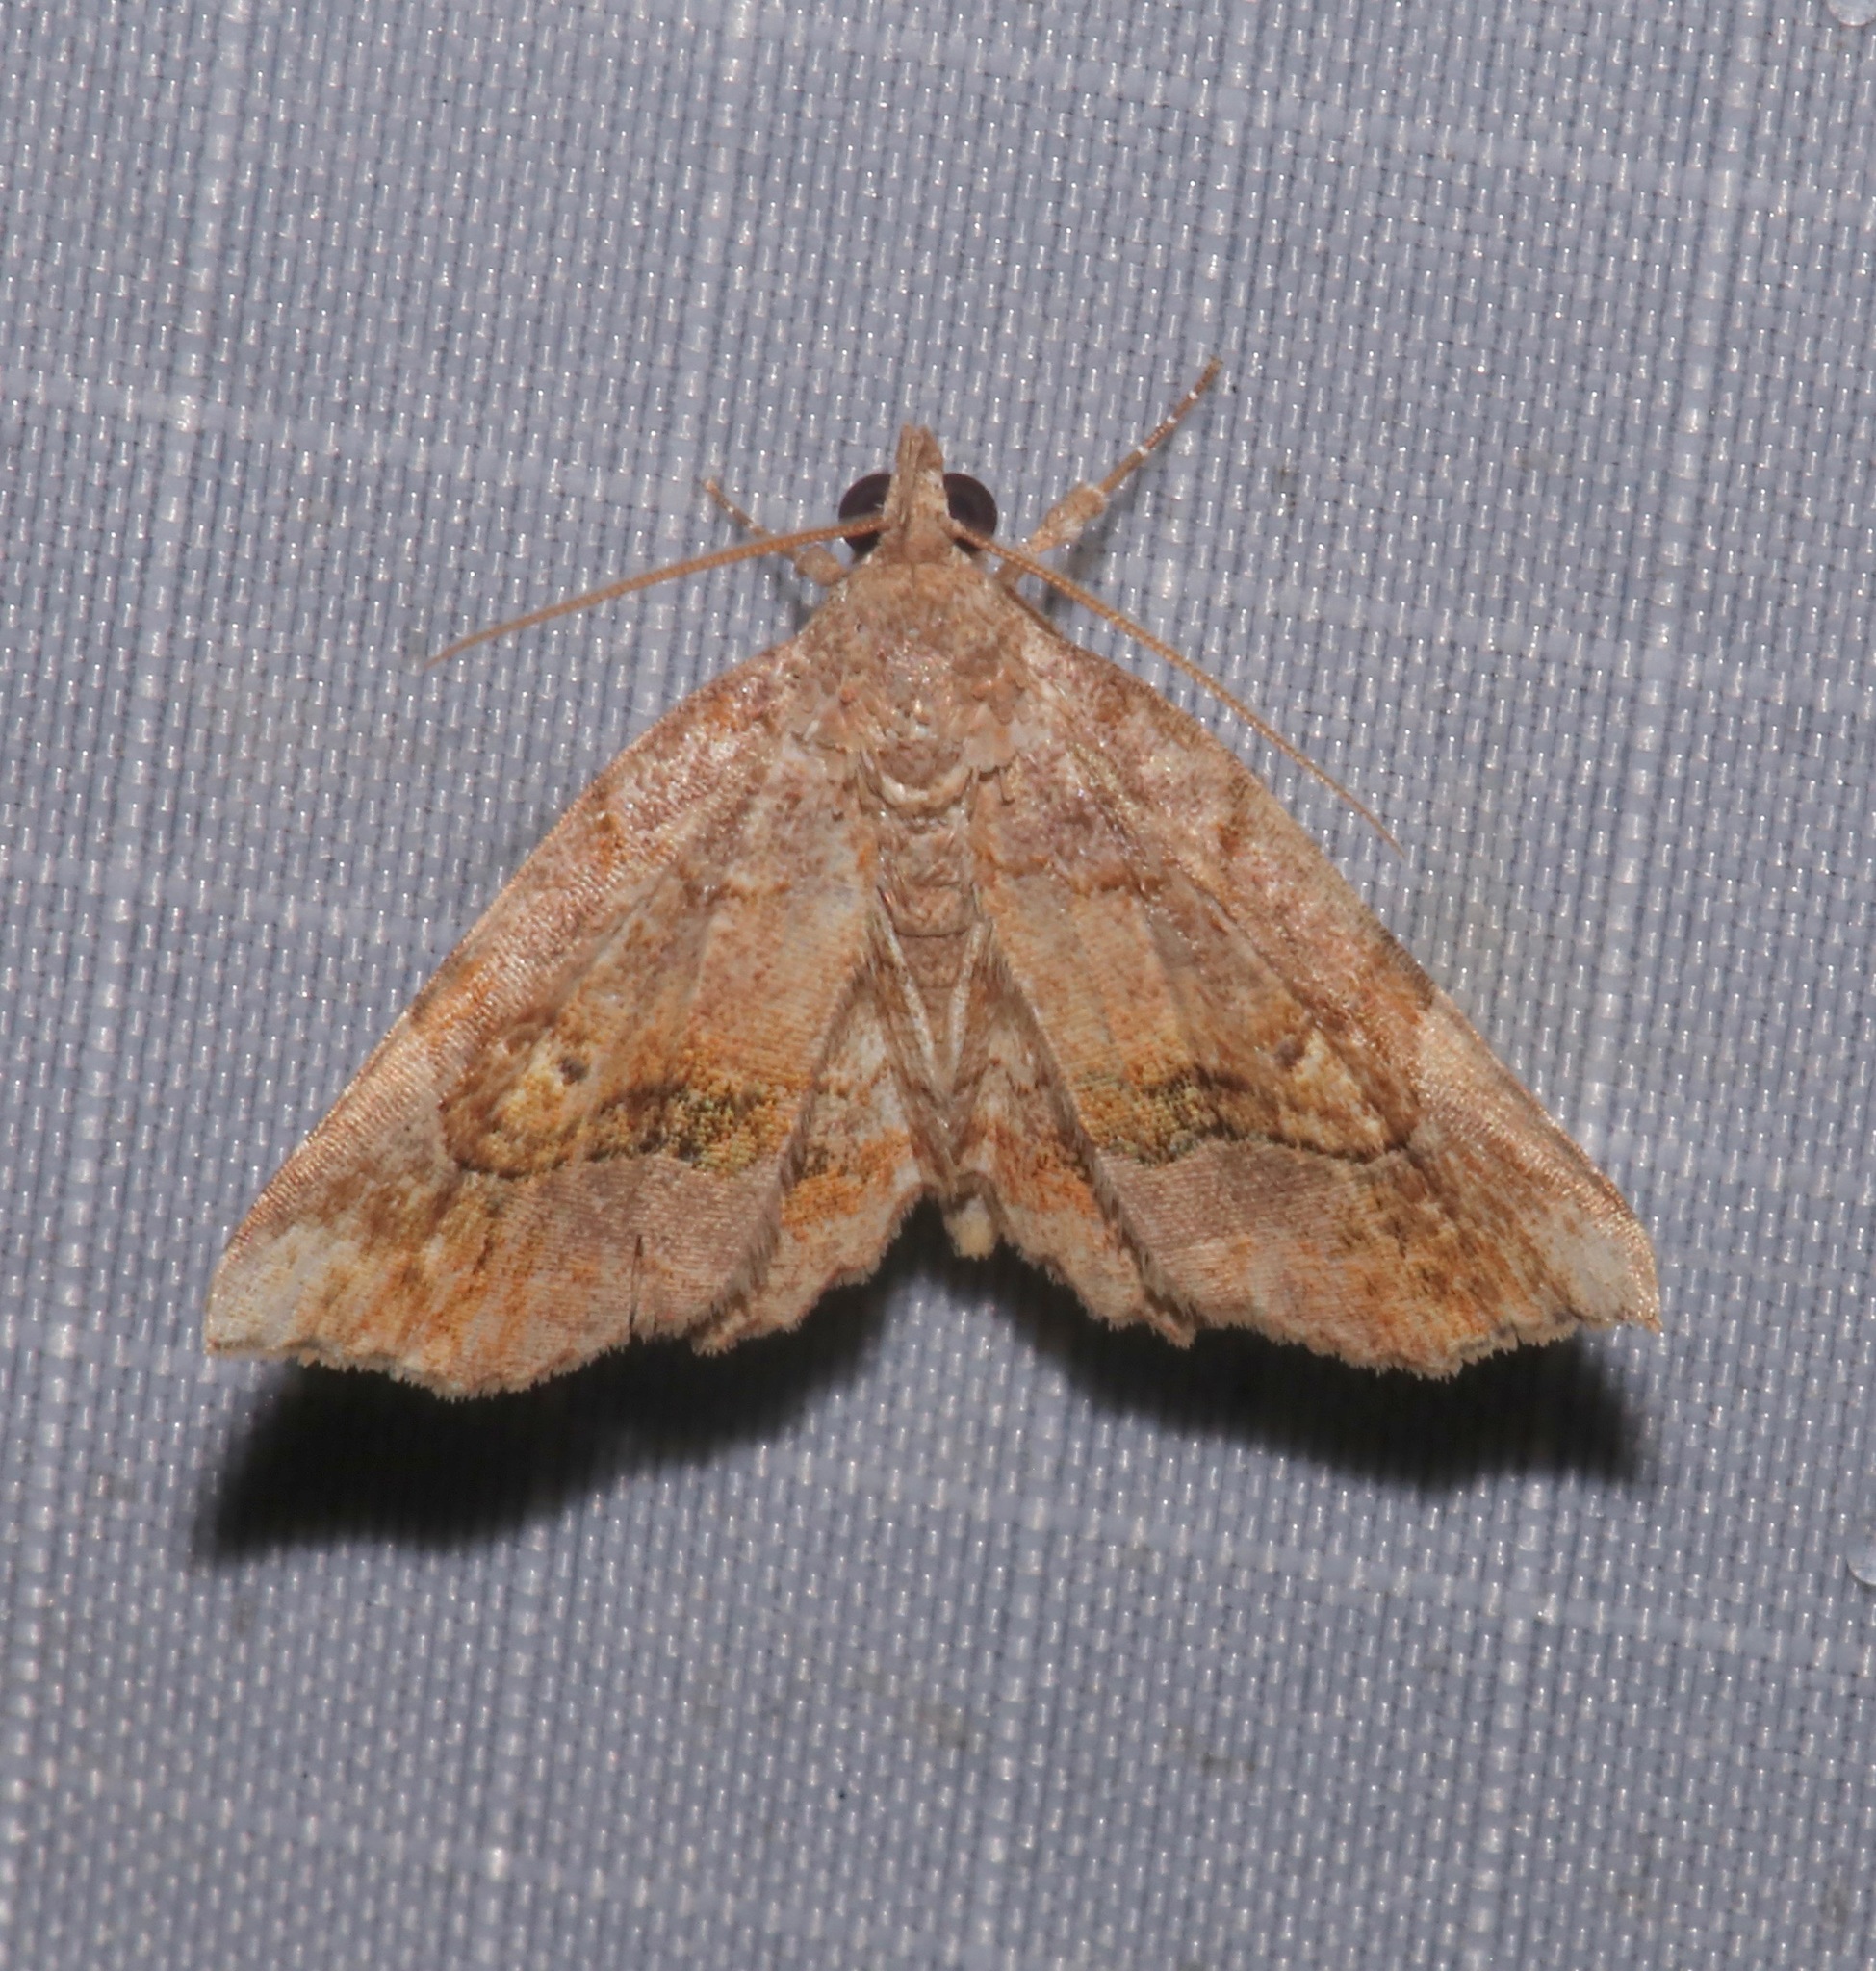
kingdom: Animalia
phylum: Arthropoda
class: Insecta
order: Lepidoptera
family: Erebidae
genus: Pangrapta
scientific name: Pangrapta decoralis
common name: Decorated owlet
